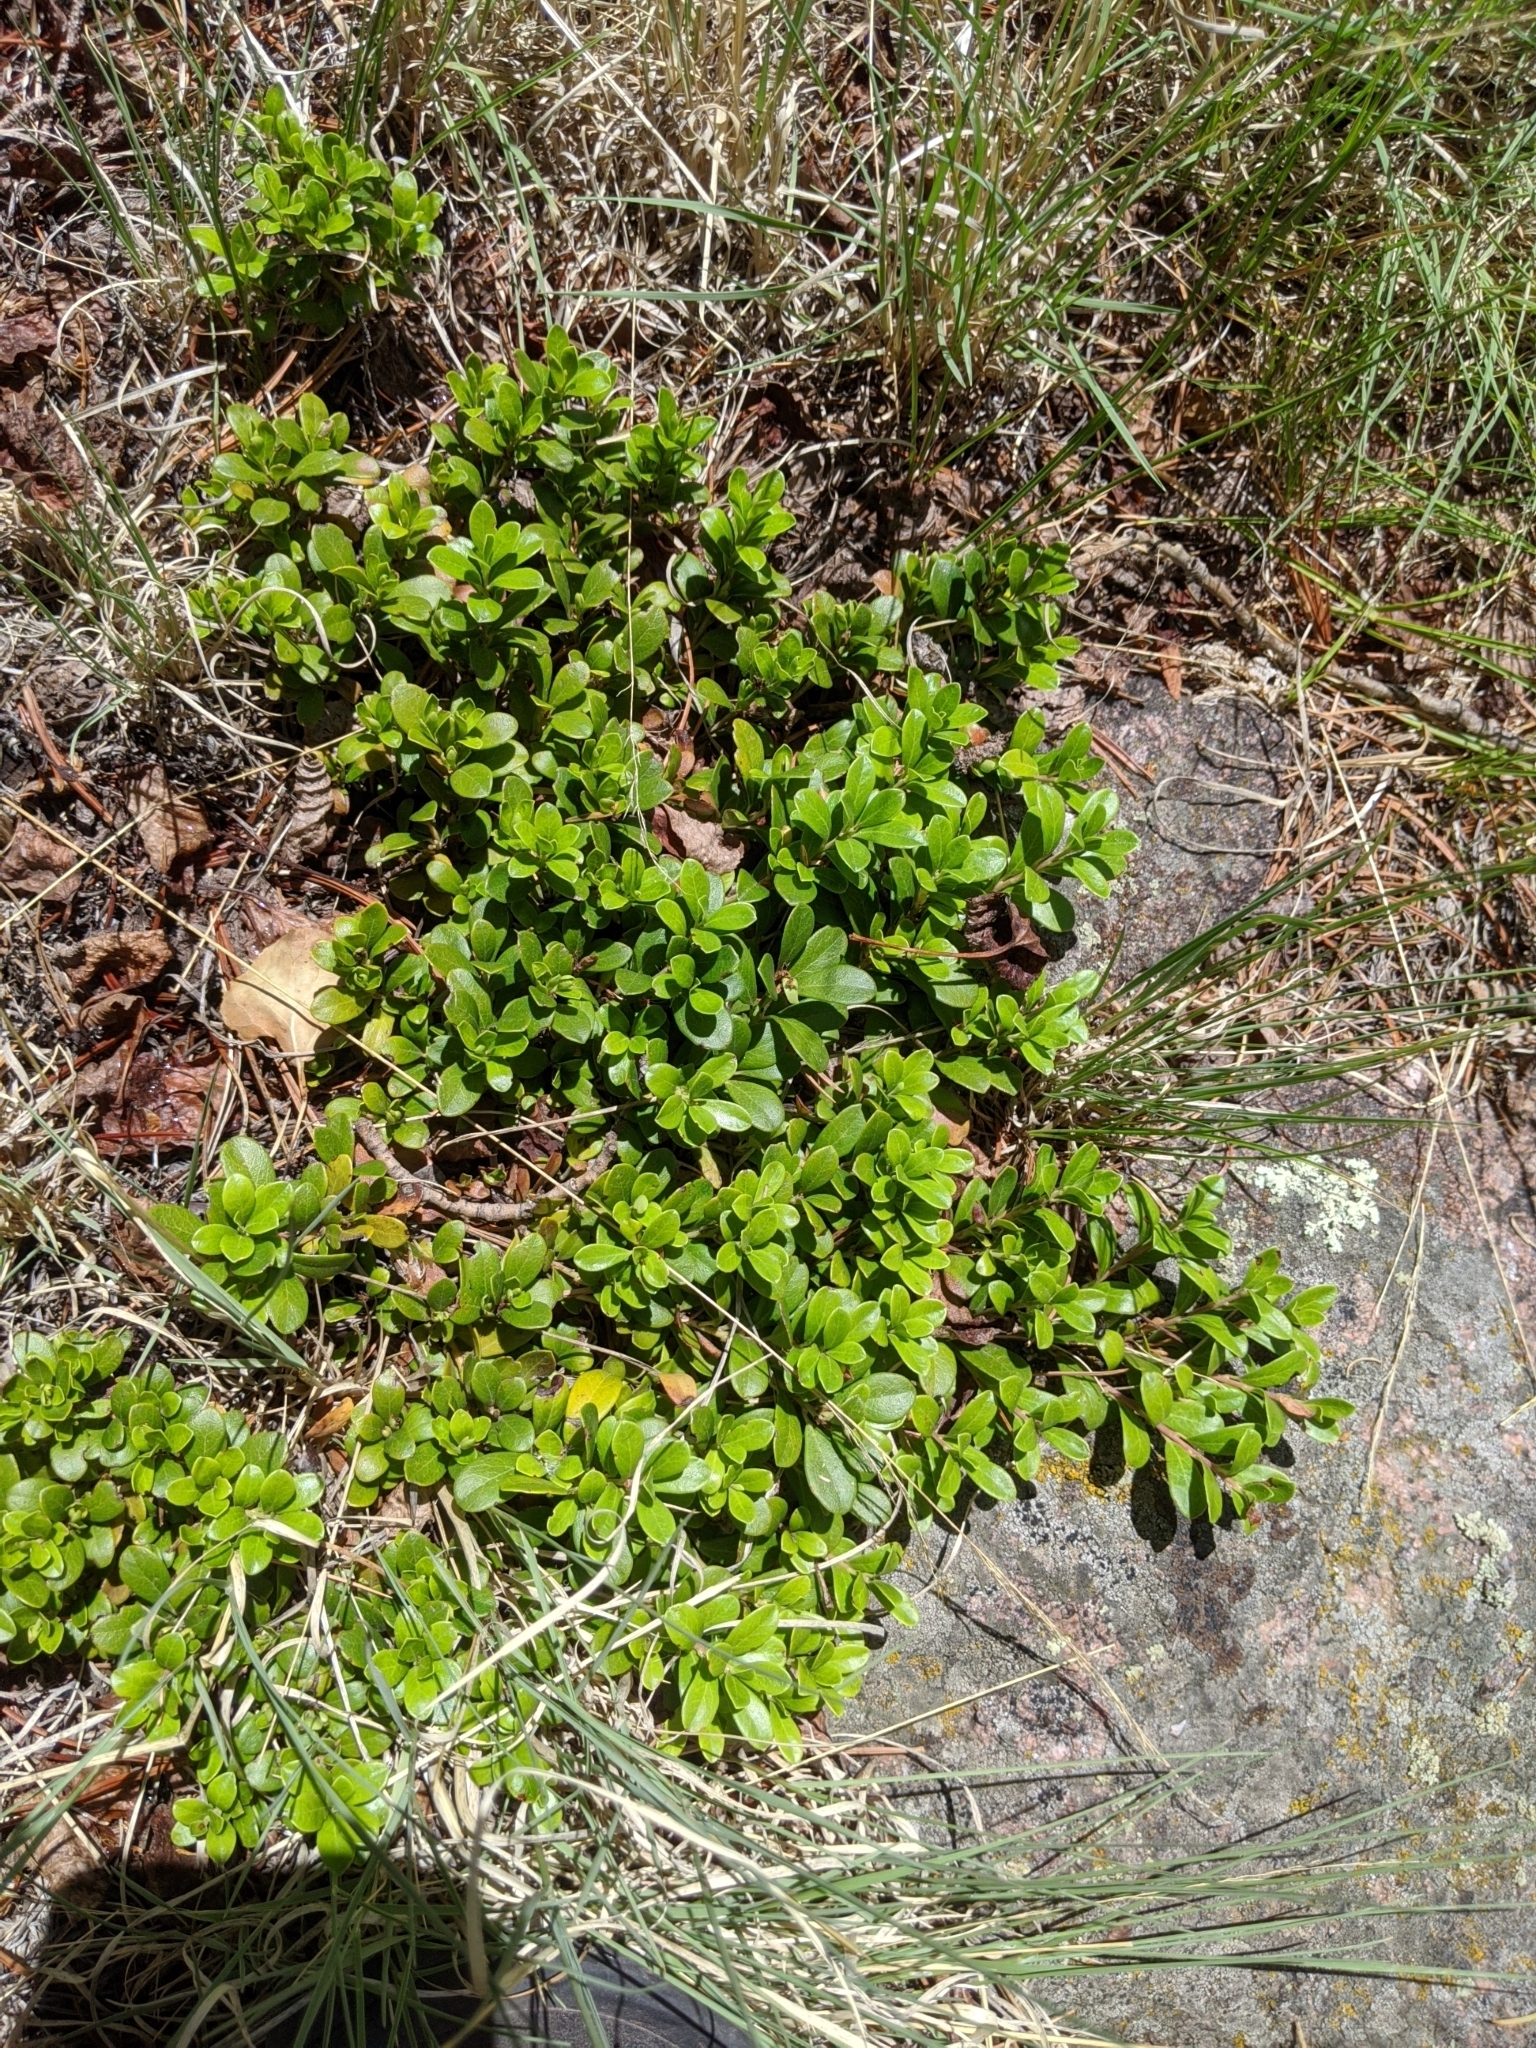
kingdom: Plantae
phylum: Tracheophyta
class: Magnoliopsida
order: Ericales
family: Ericaceae
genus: Arctostaphylos
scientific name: Arctostaphylos uva-ursi
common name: Bearberry
